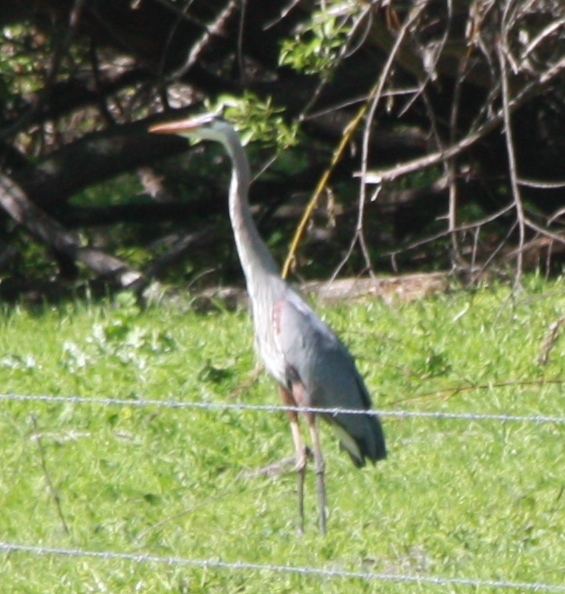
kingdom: Animalia
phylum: Chordata
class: Aves
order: Pelecaniformes
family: Ardeidae
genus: Ardea
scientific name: Ardea herodias
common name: Great blue heron
